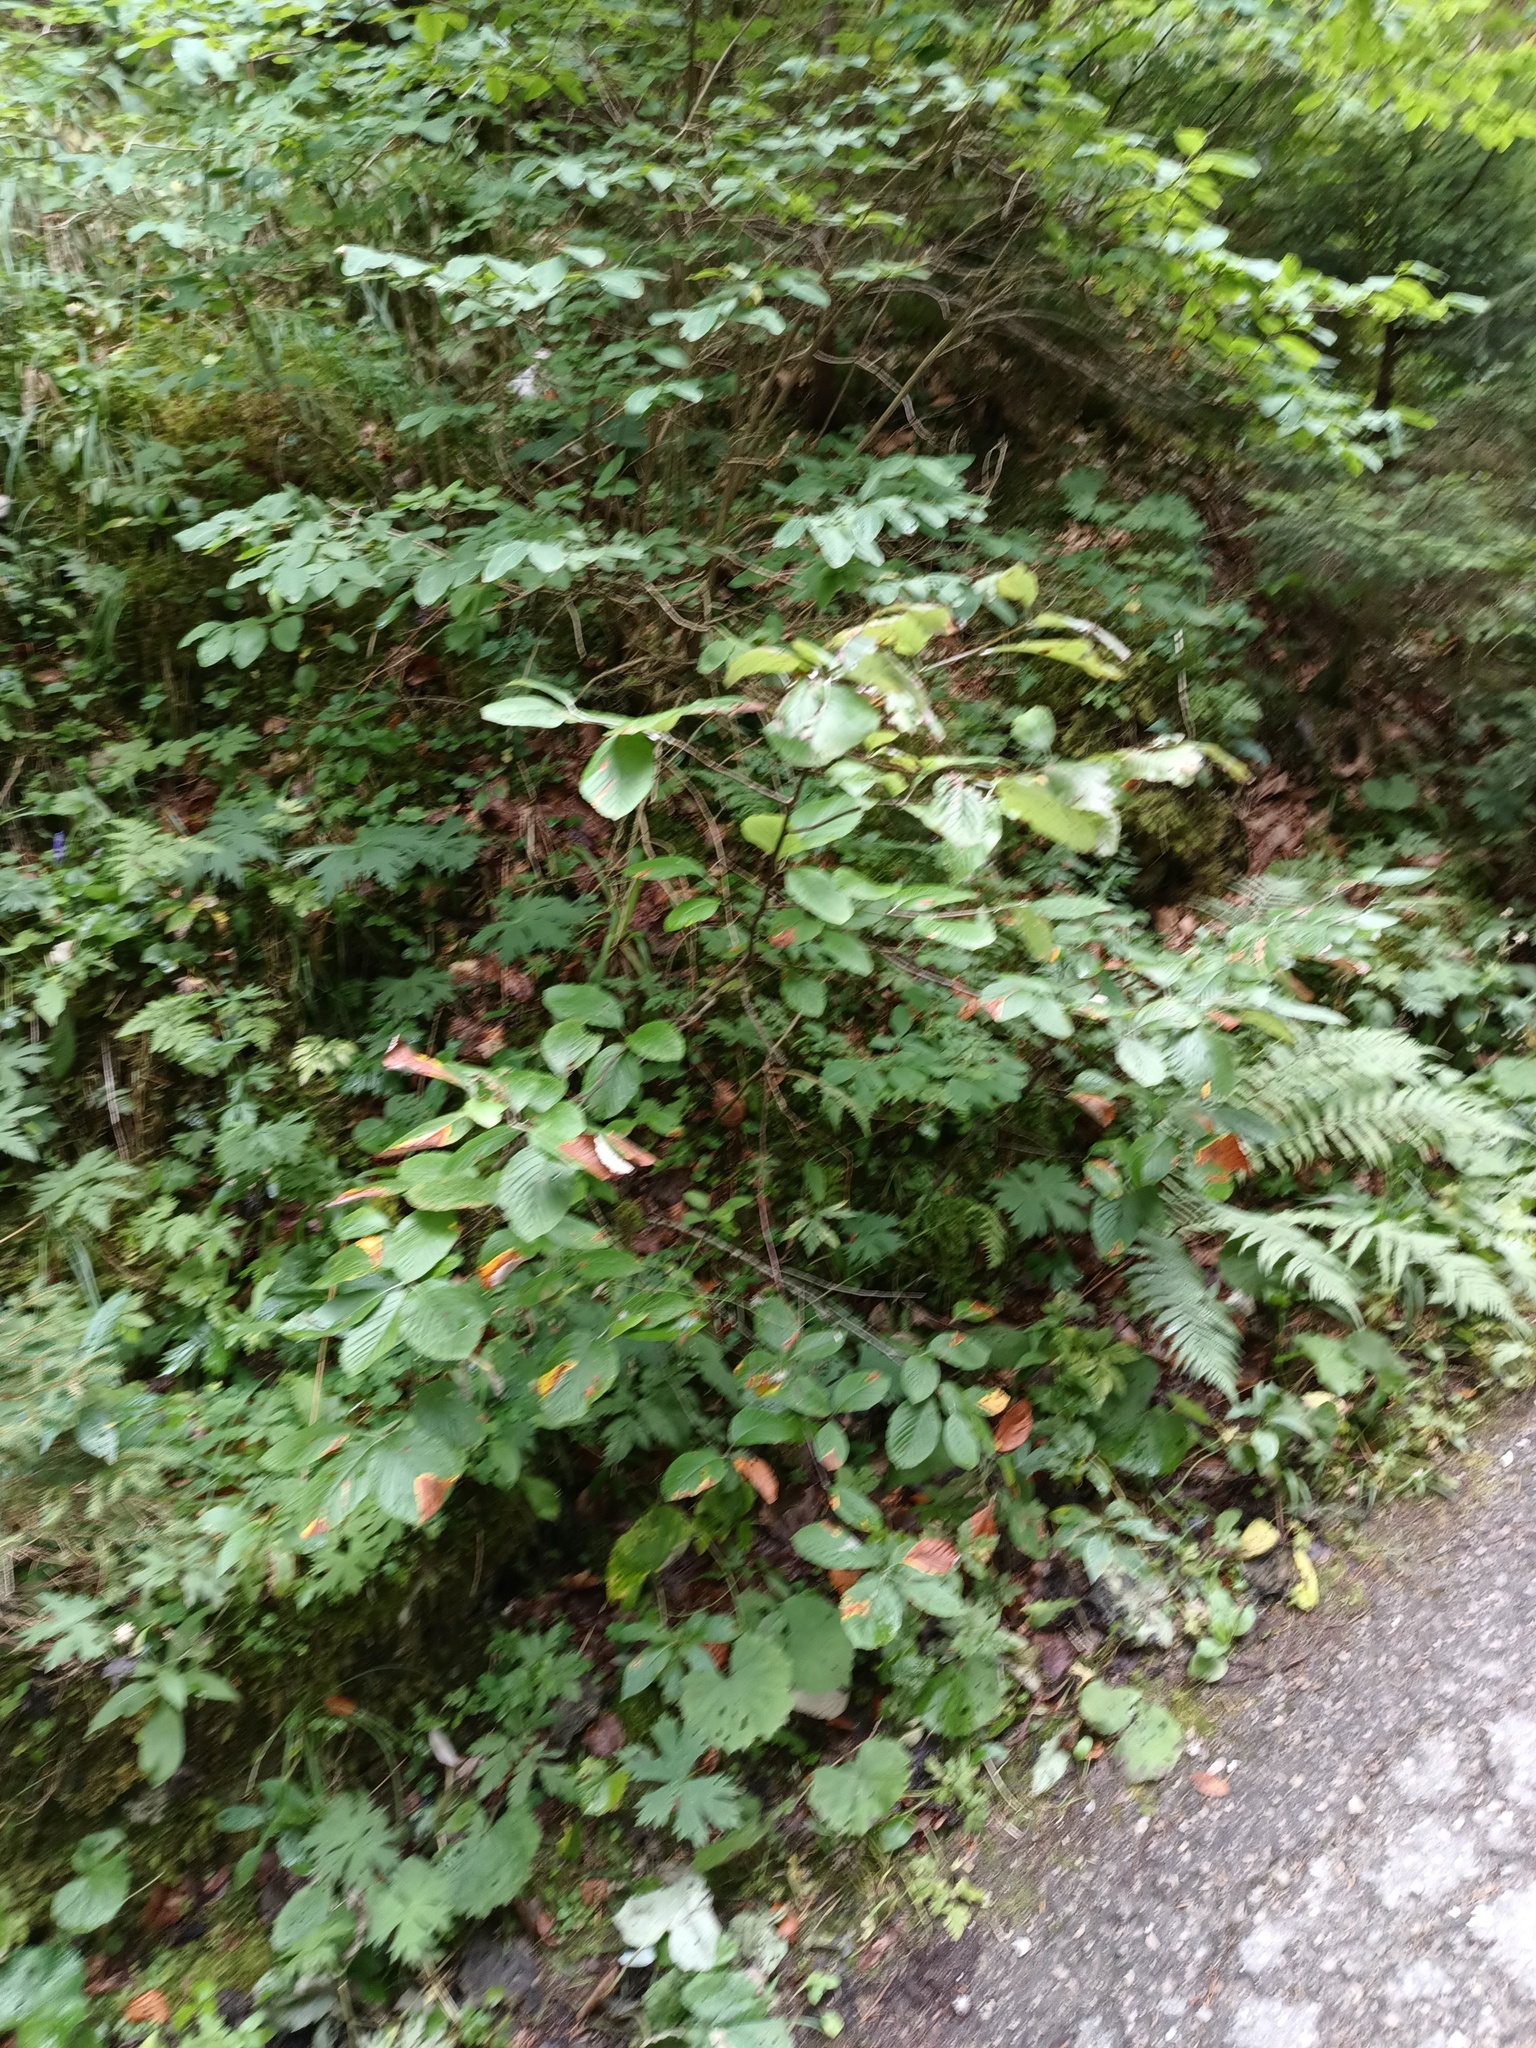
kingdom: Plantae
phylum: Tracheophyta
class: Magnoliopsida
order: Rosales
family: Rosaceae
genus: Aria
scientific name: Aria edulis
